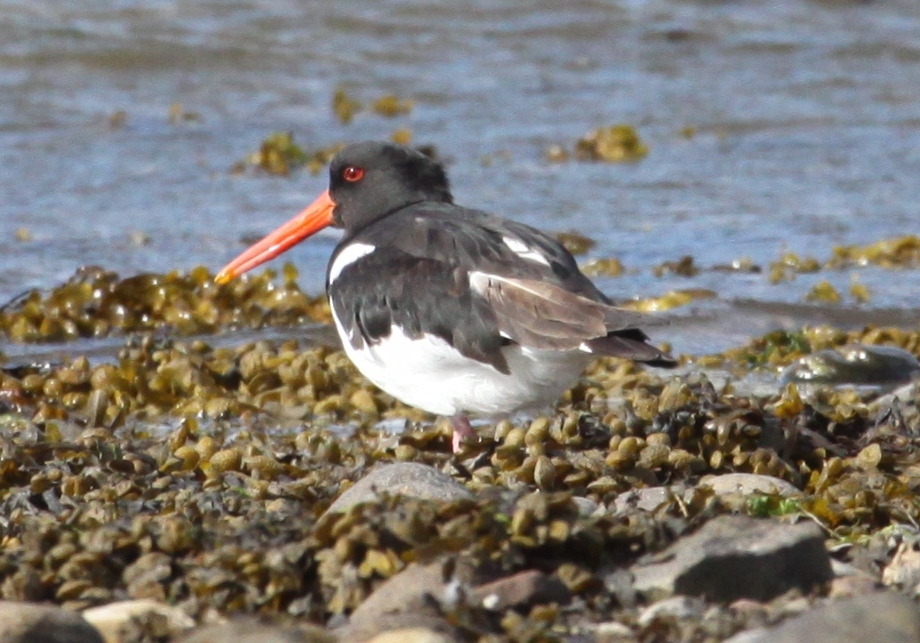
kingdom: Animalia
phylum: Chordata
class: Aves
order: Charadriiformes
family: Haematopodidae
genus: Haematopus
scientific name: Haematopus ostralegus
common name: Eurasian oystercatcher
